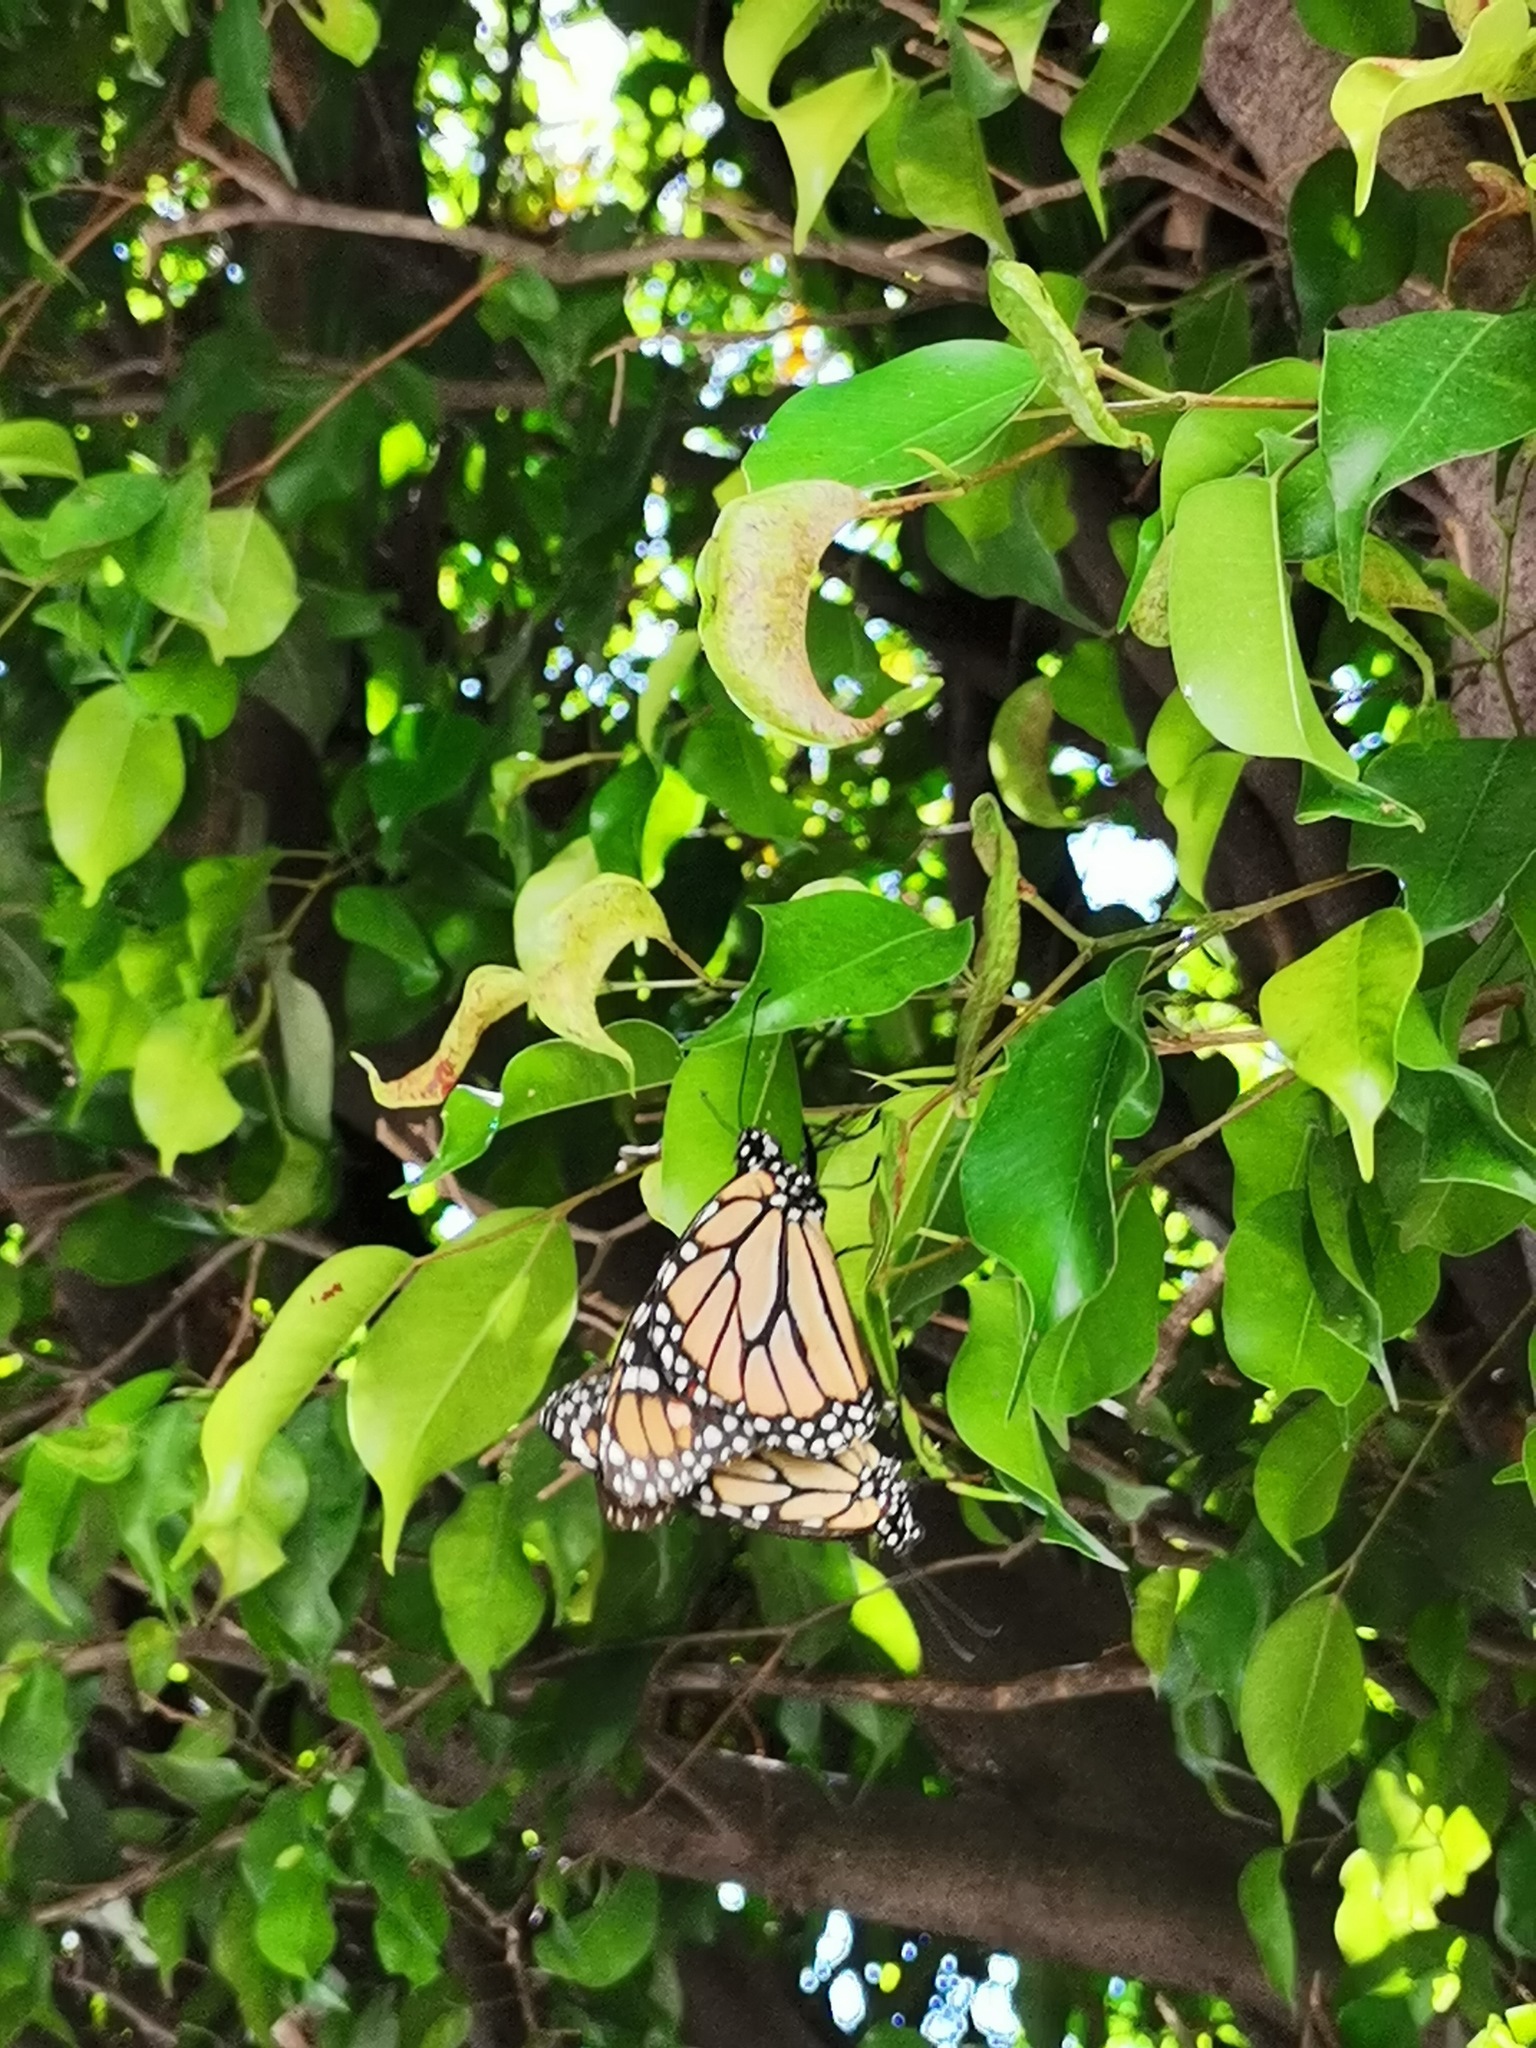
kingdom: Animalia
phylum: Arthropoda
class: Insecta
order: Lepidoptera
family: Nymphalidae
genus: Danaus
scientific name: Danaus plexippus
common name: Monarch
